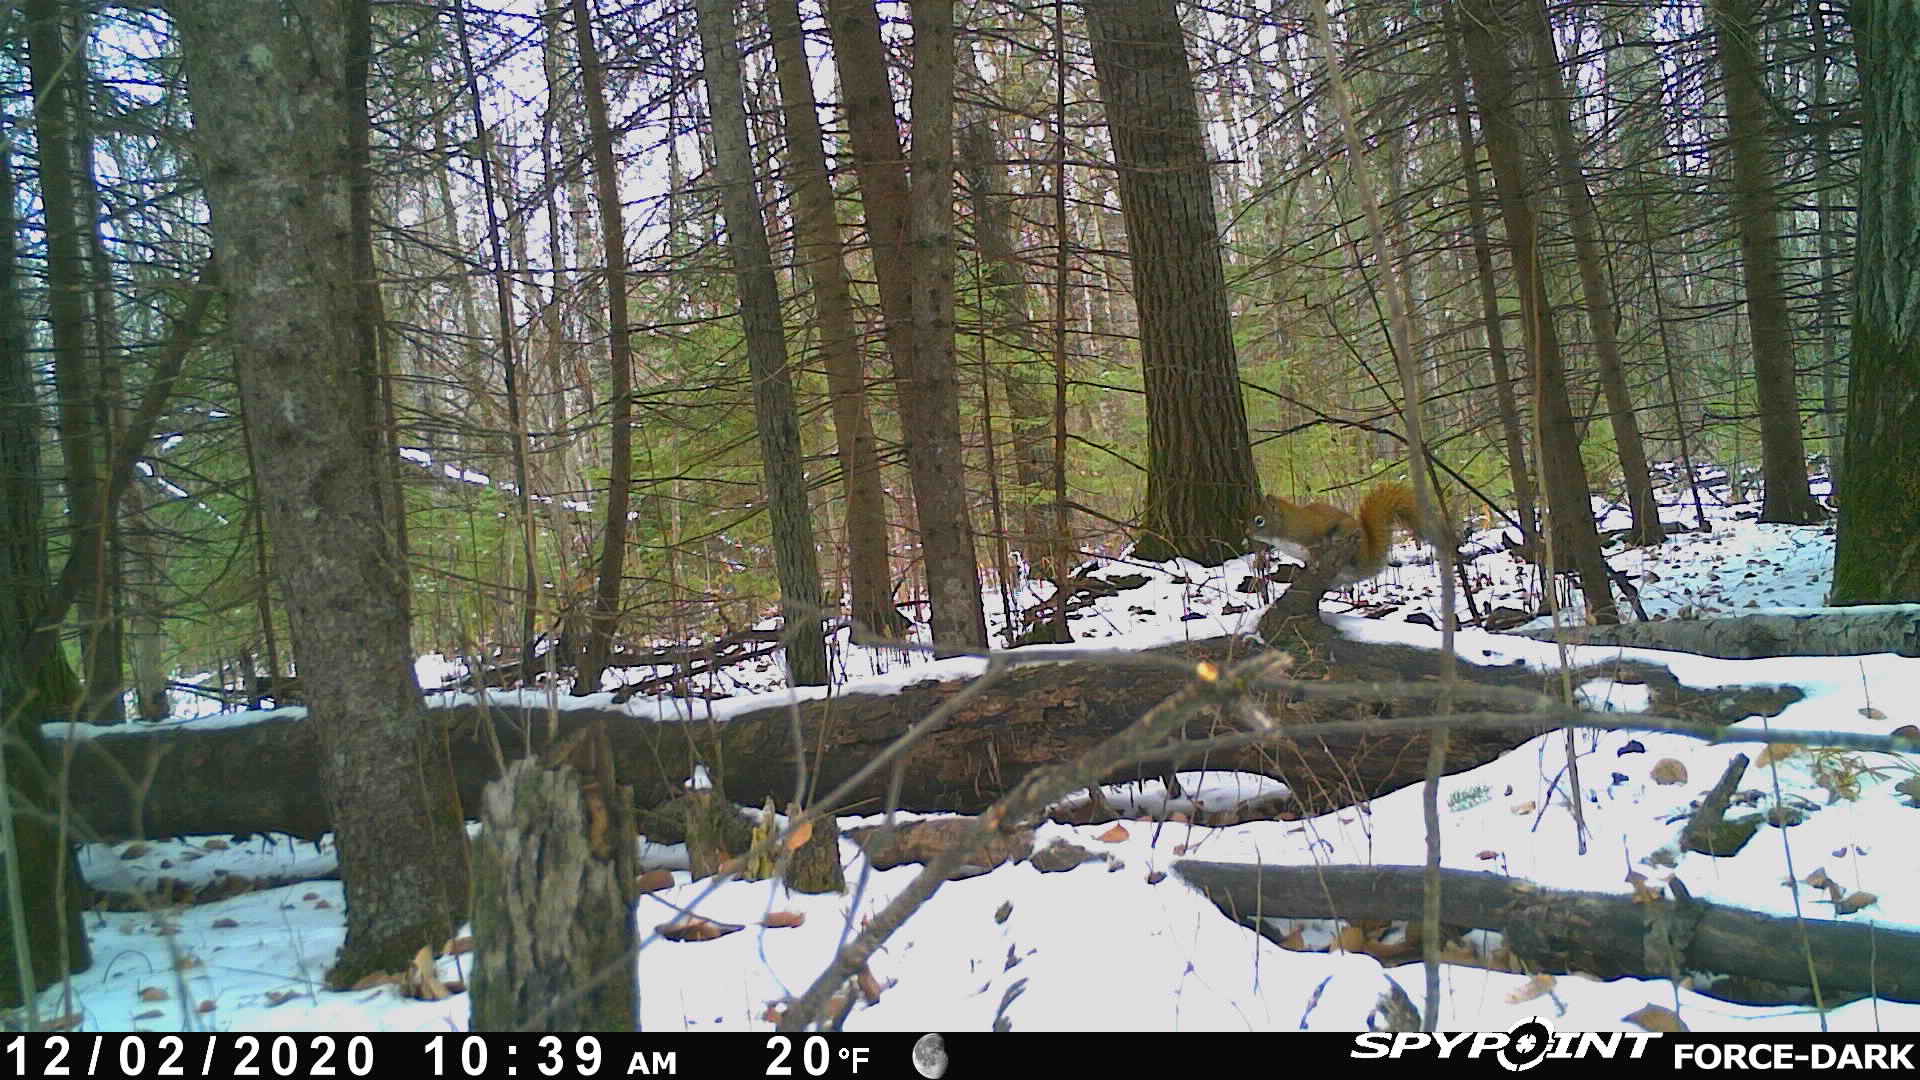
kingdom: Animalia
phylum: Chordata
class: Mammalia
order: Rodentia
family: Sciuridae
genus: Tamiasciurus
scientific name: Tamiasciurus hudsonicus
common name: Red squirrel
